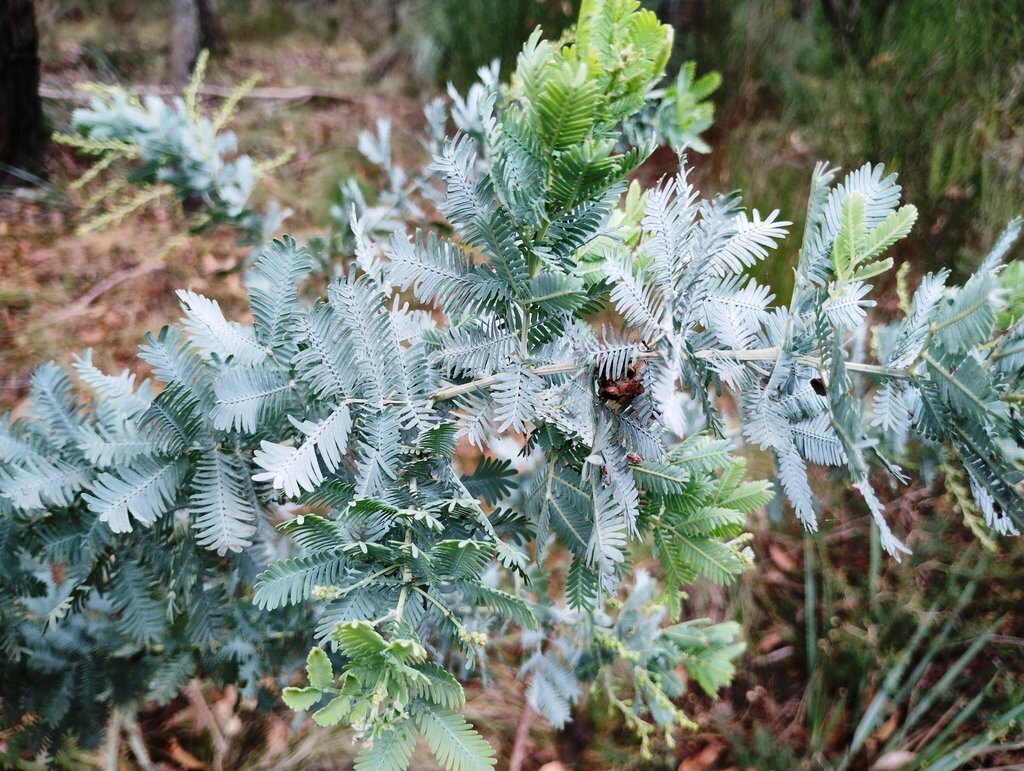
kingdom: Plantae
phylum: Tracheophyta
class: Magnoliopsida
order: Fabales
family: Fabaceae
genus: Acacia
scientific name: Acacia baileyana
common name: Cootamundra wattle
